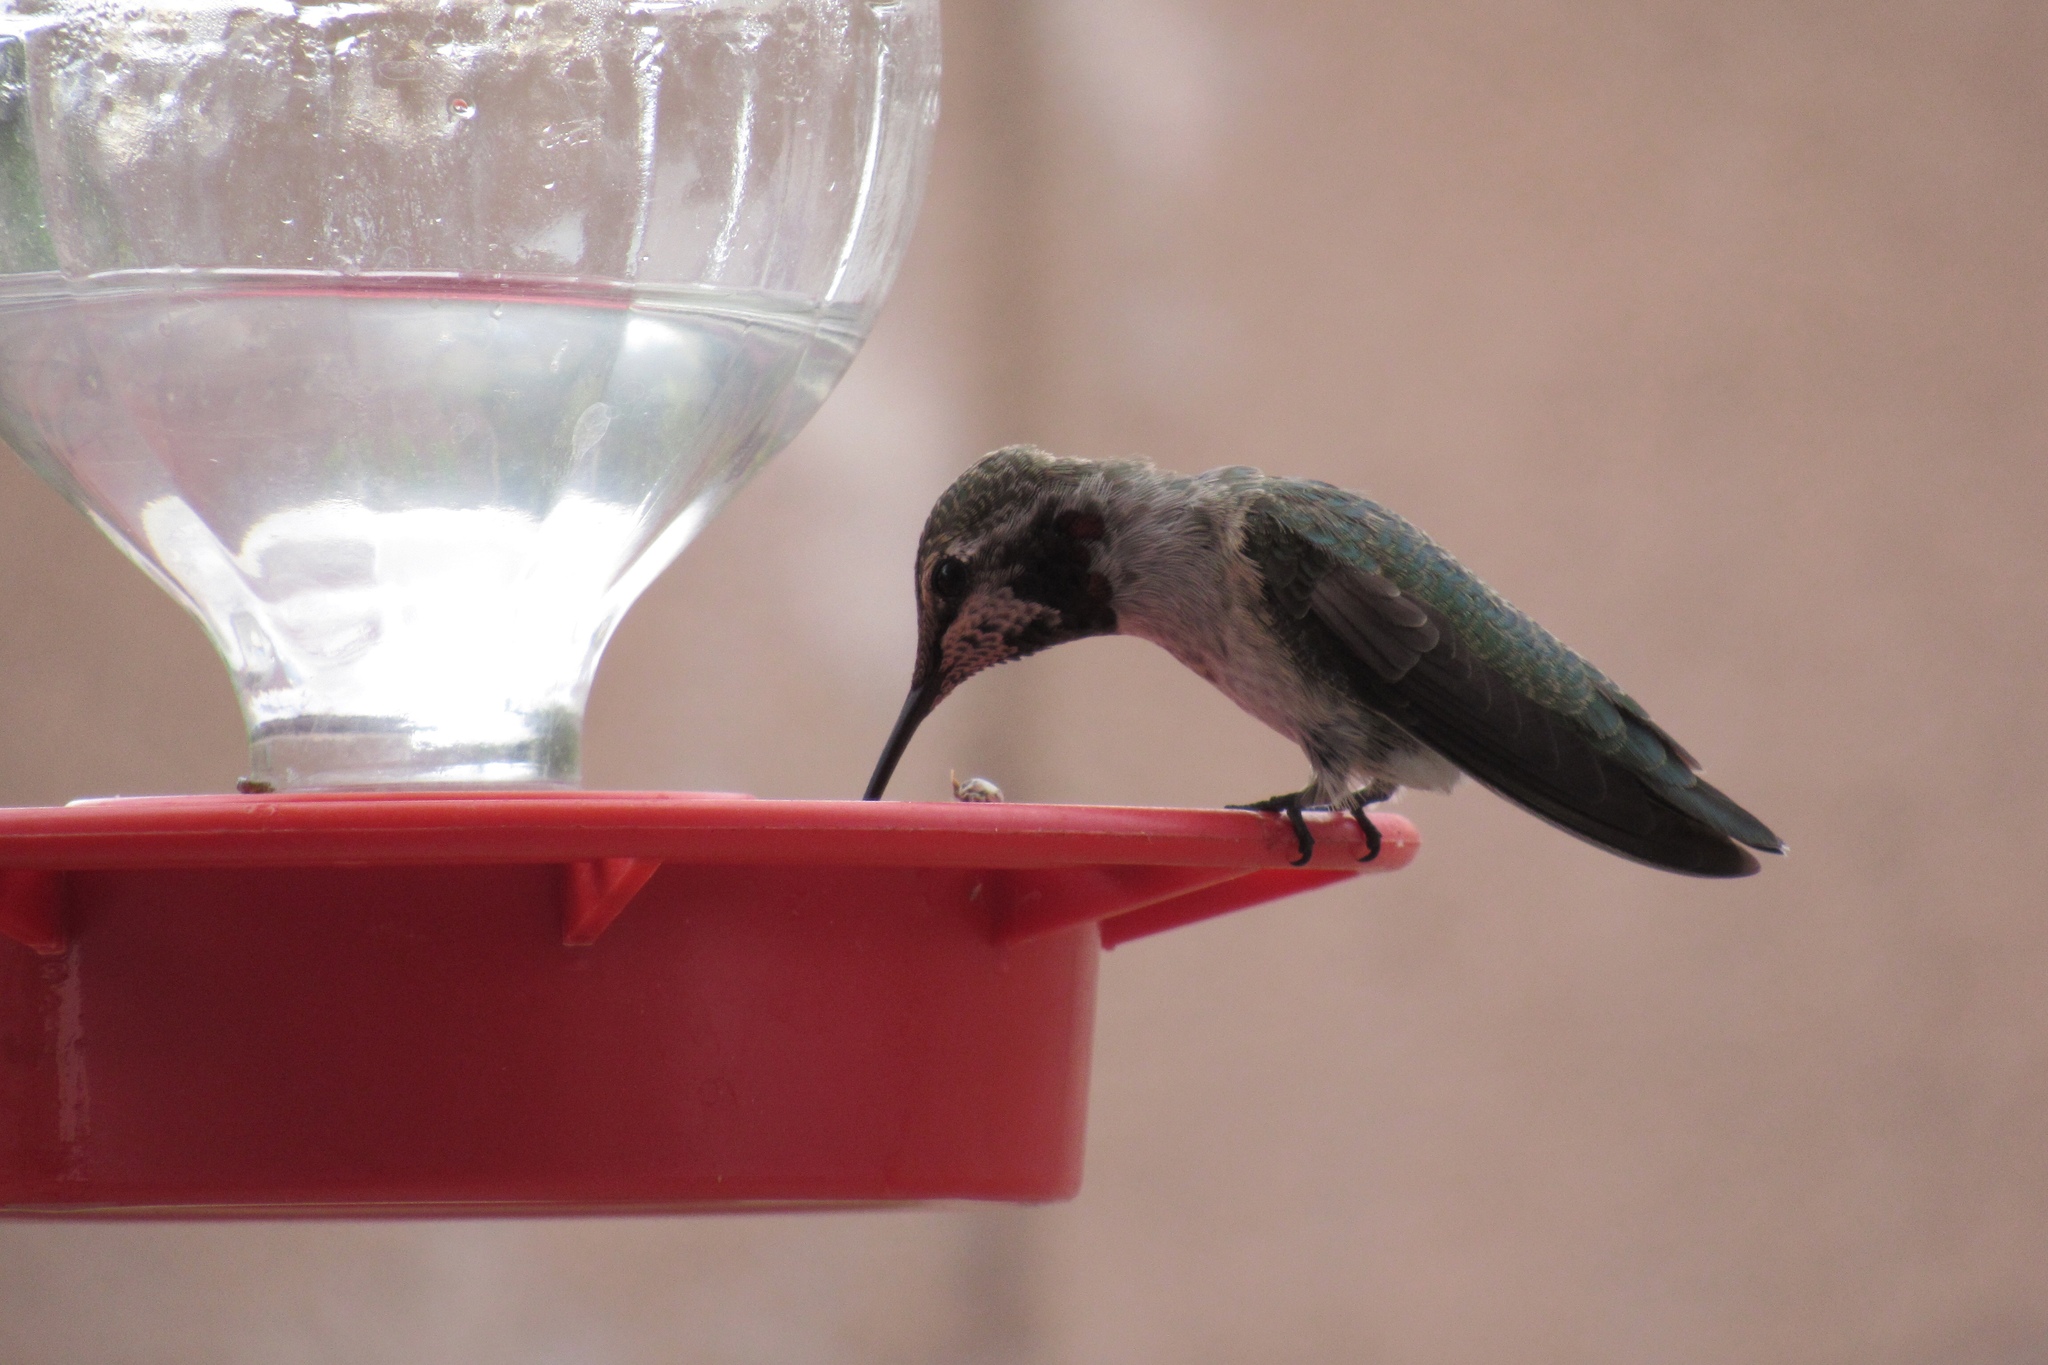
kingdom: Animalia
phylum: Chordata
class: Aves
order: Apodiformes
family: Trochilidae
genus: Calypte
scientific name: Calypte anna
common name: Anna's hummingbird
